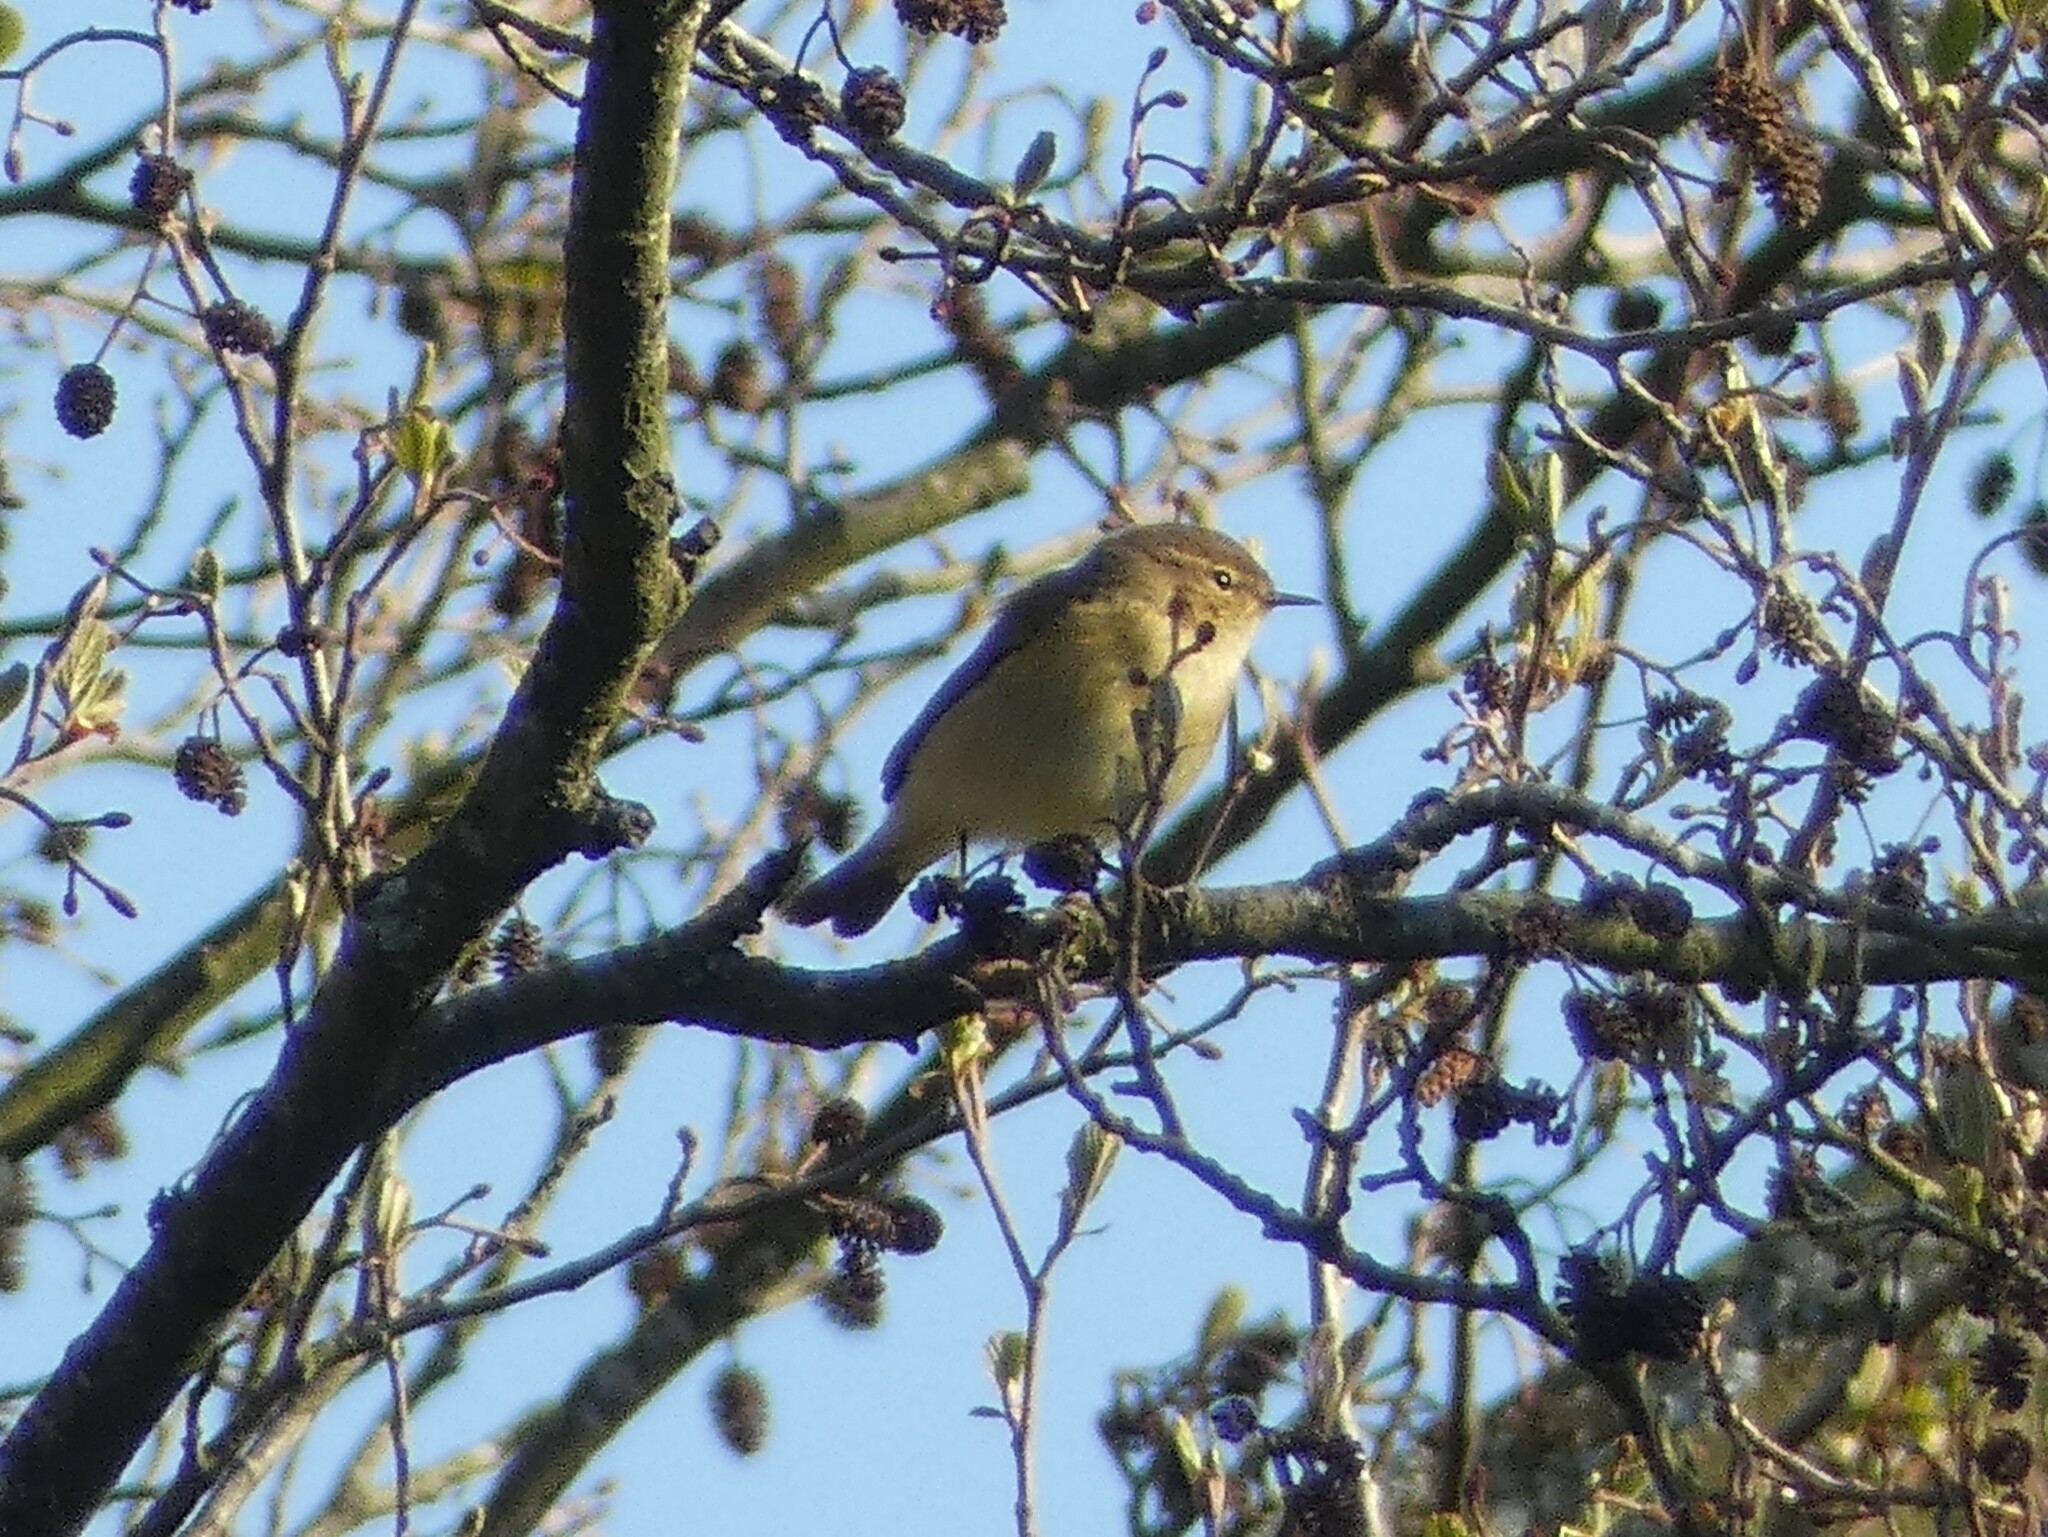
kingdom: Animalia
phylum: Chordata
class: Aves
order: Passeriformes
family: Phylloscopidae
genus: Phylloscopus
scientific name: Phylloscopus collybita
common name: Common chiffchaff
